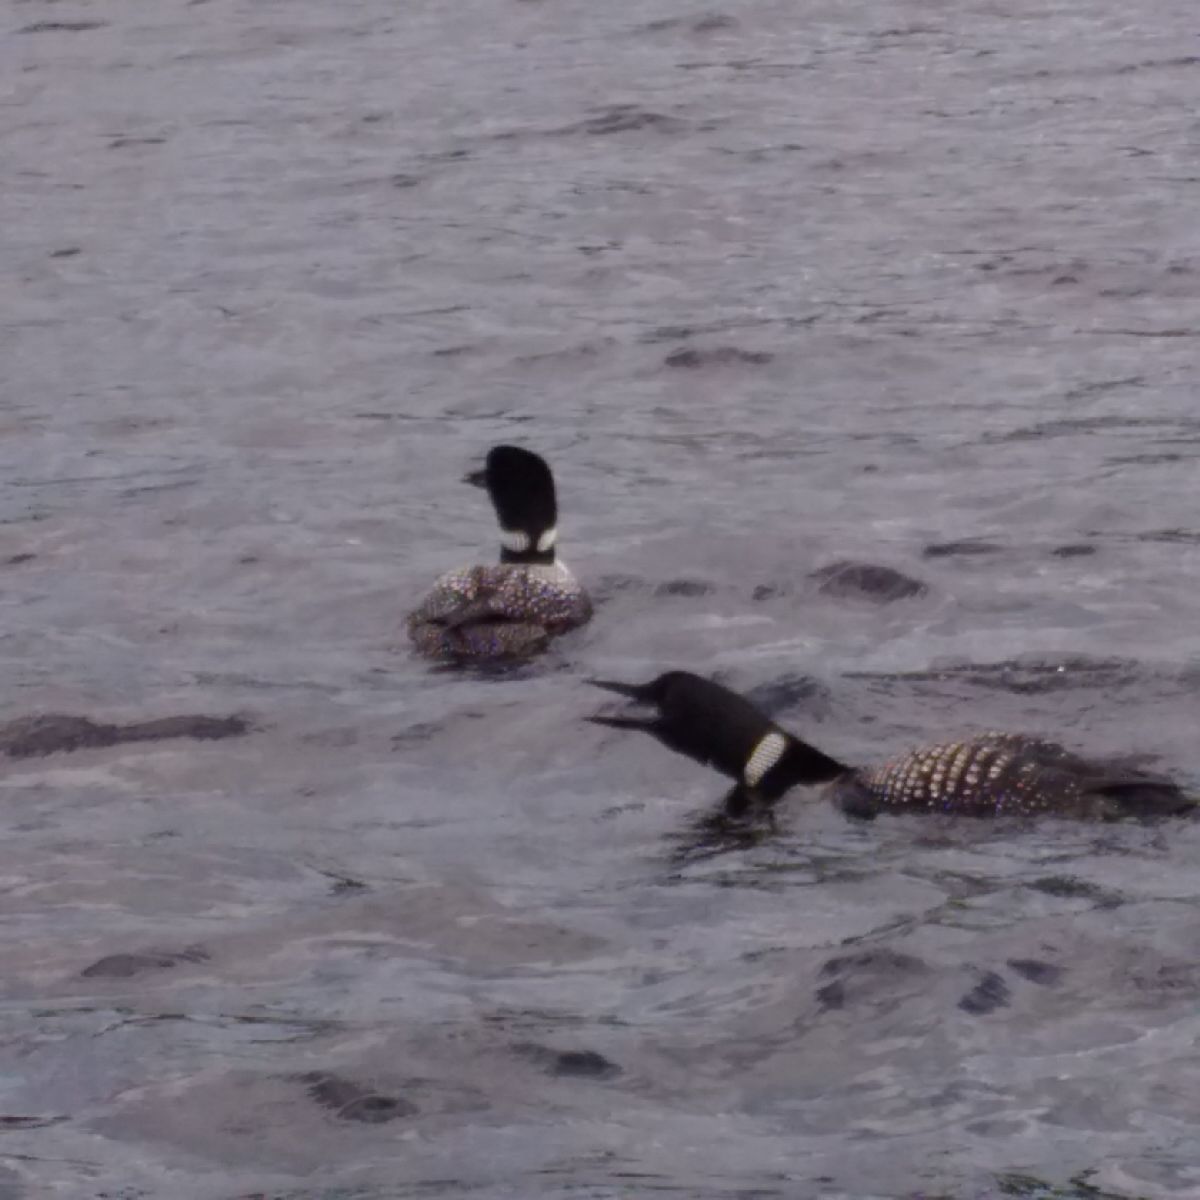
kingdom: Animalia
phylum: Chordata
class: Aves
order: Gaviiformes
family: Gaviidae
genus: Gavia
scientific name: Gavia immer
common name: Common loon
